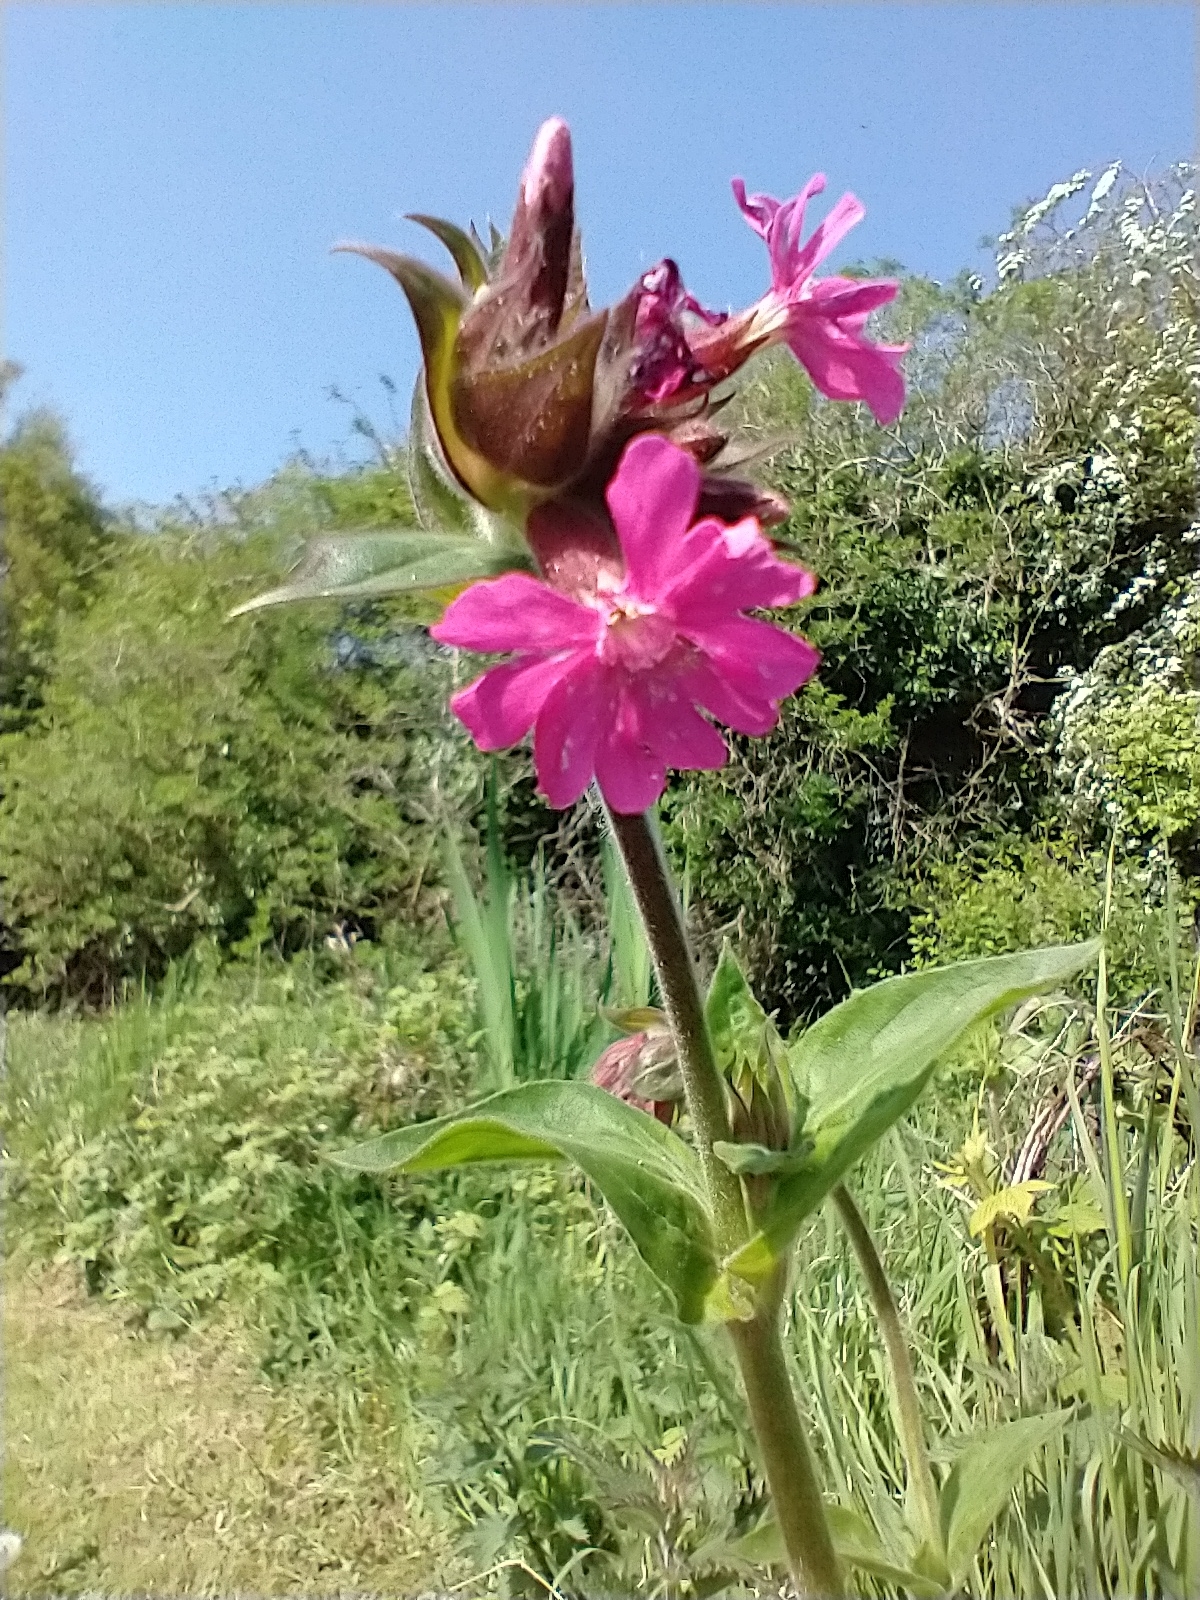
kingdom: Plantae
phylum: Tracheophyta
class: Magnoliopsida
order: Caryophyllales
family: Caryophyllaceae
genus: Silene
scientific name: Silene dioica
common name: Red campion
